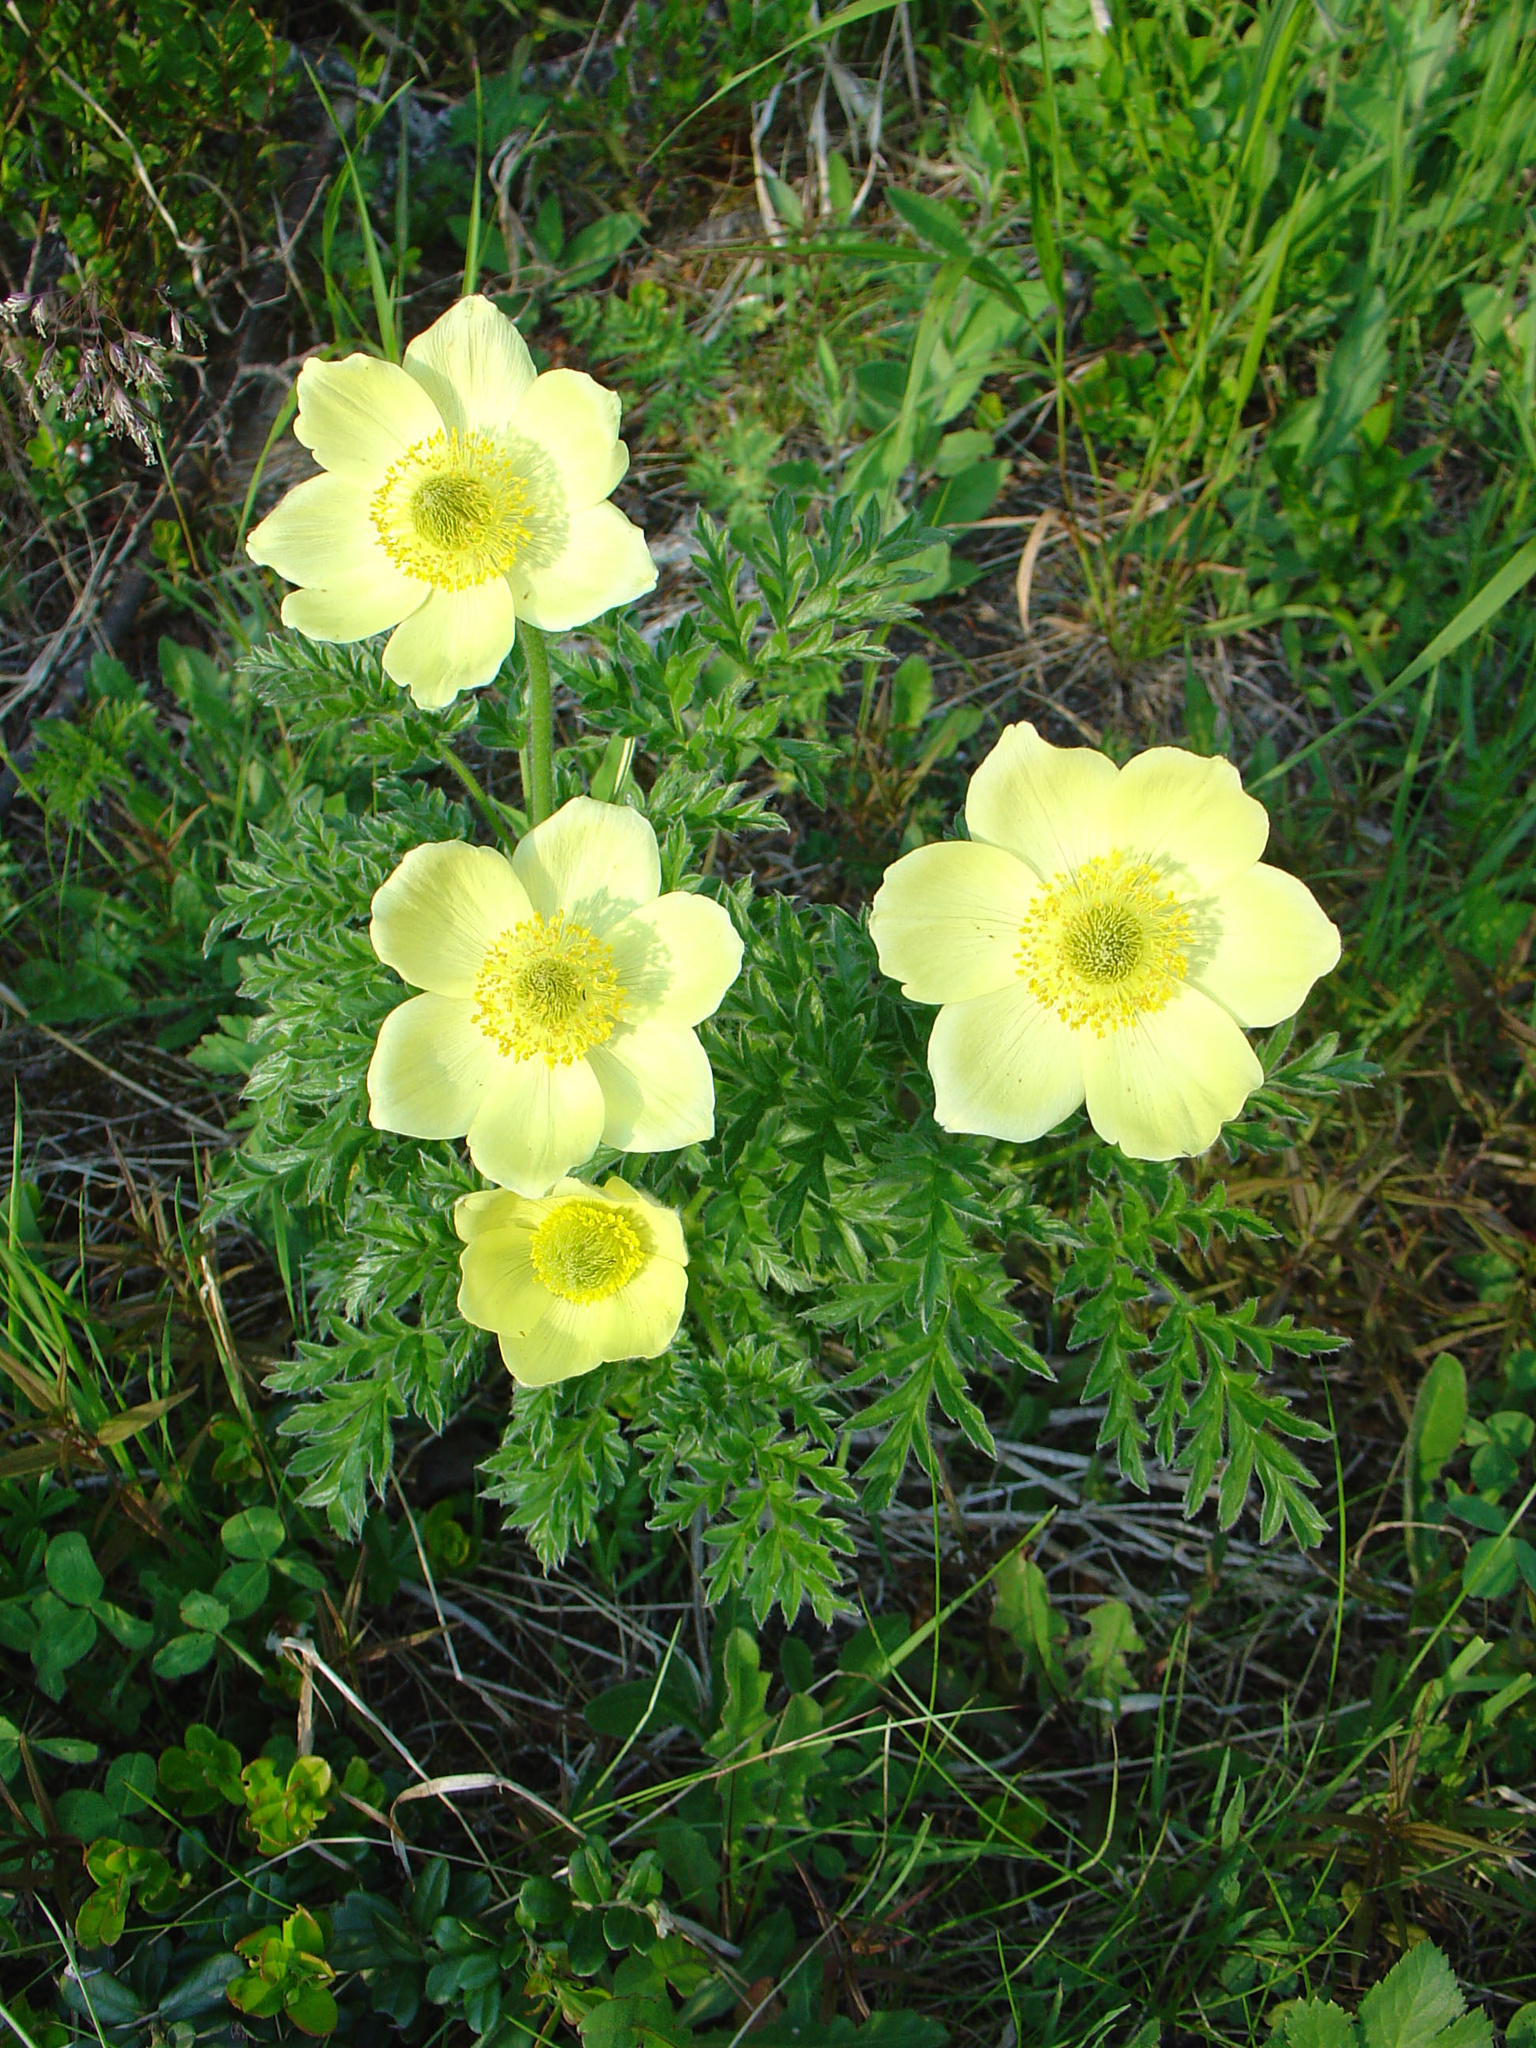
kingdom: Plantae
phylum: Tracheophyta
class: Magnoliopsida
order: Ranunculales
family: Ranunculaceae
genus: Pulsatilla
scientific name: Pulsatilla alpina
